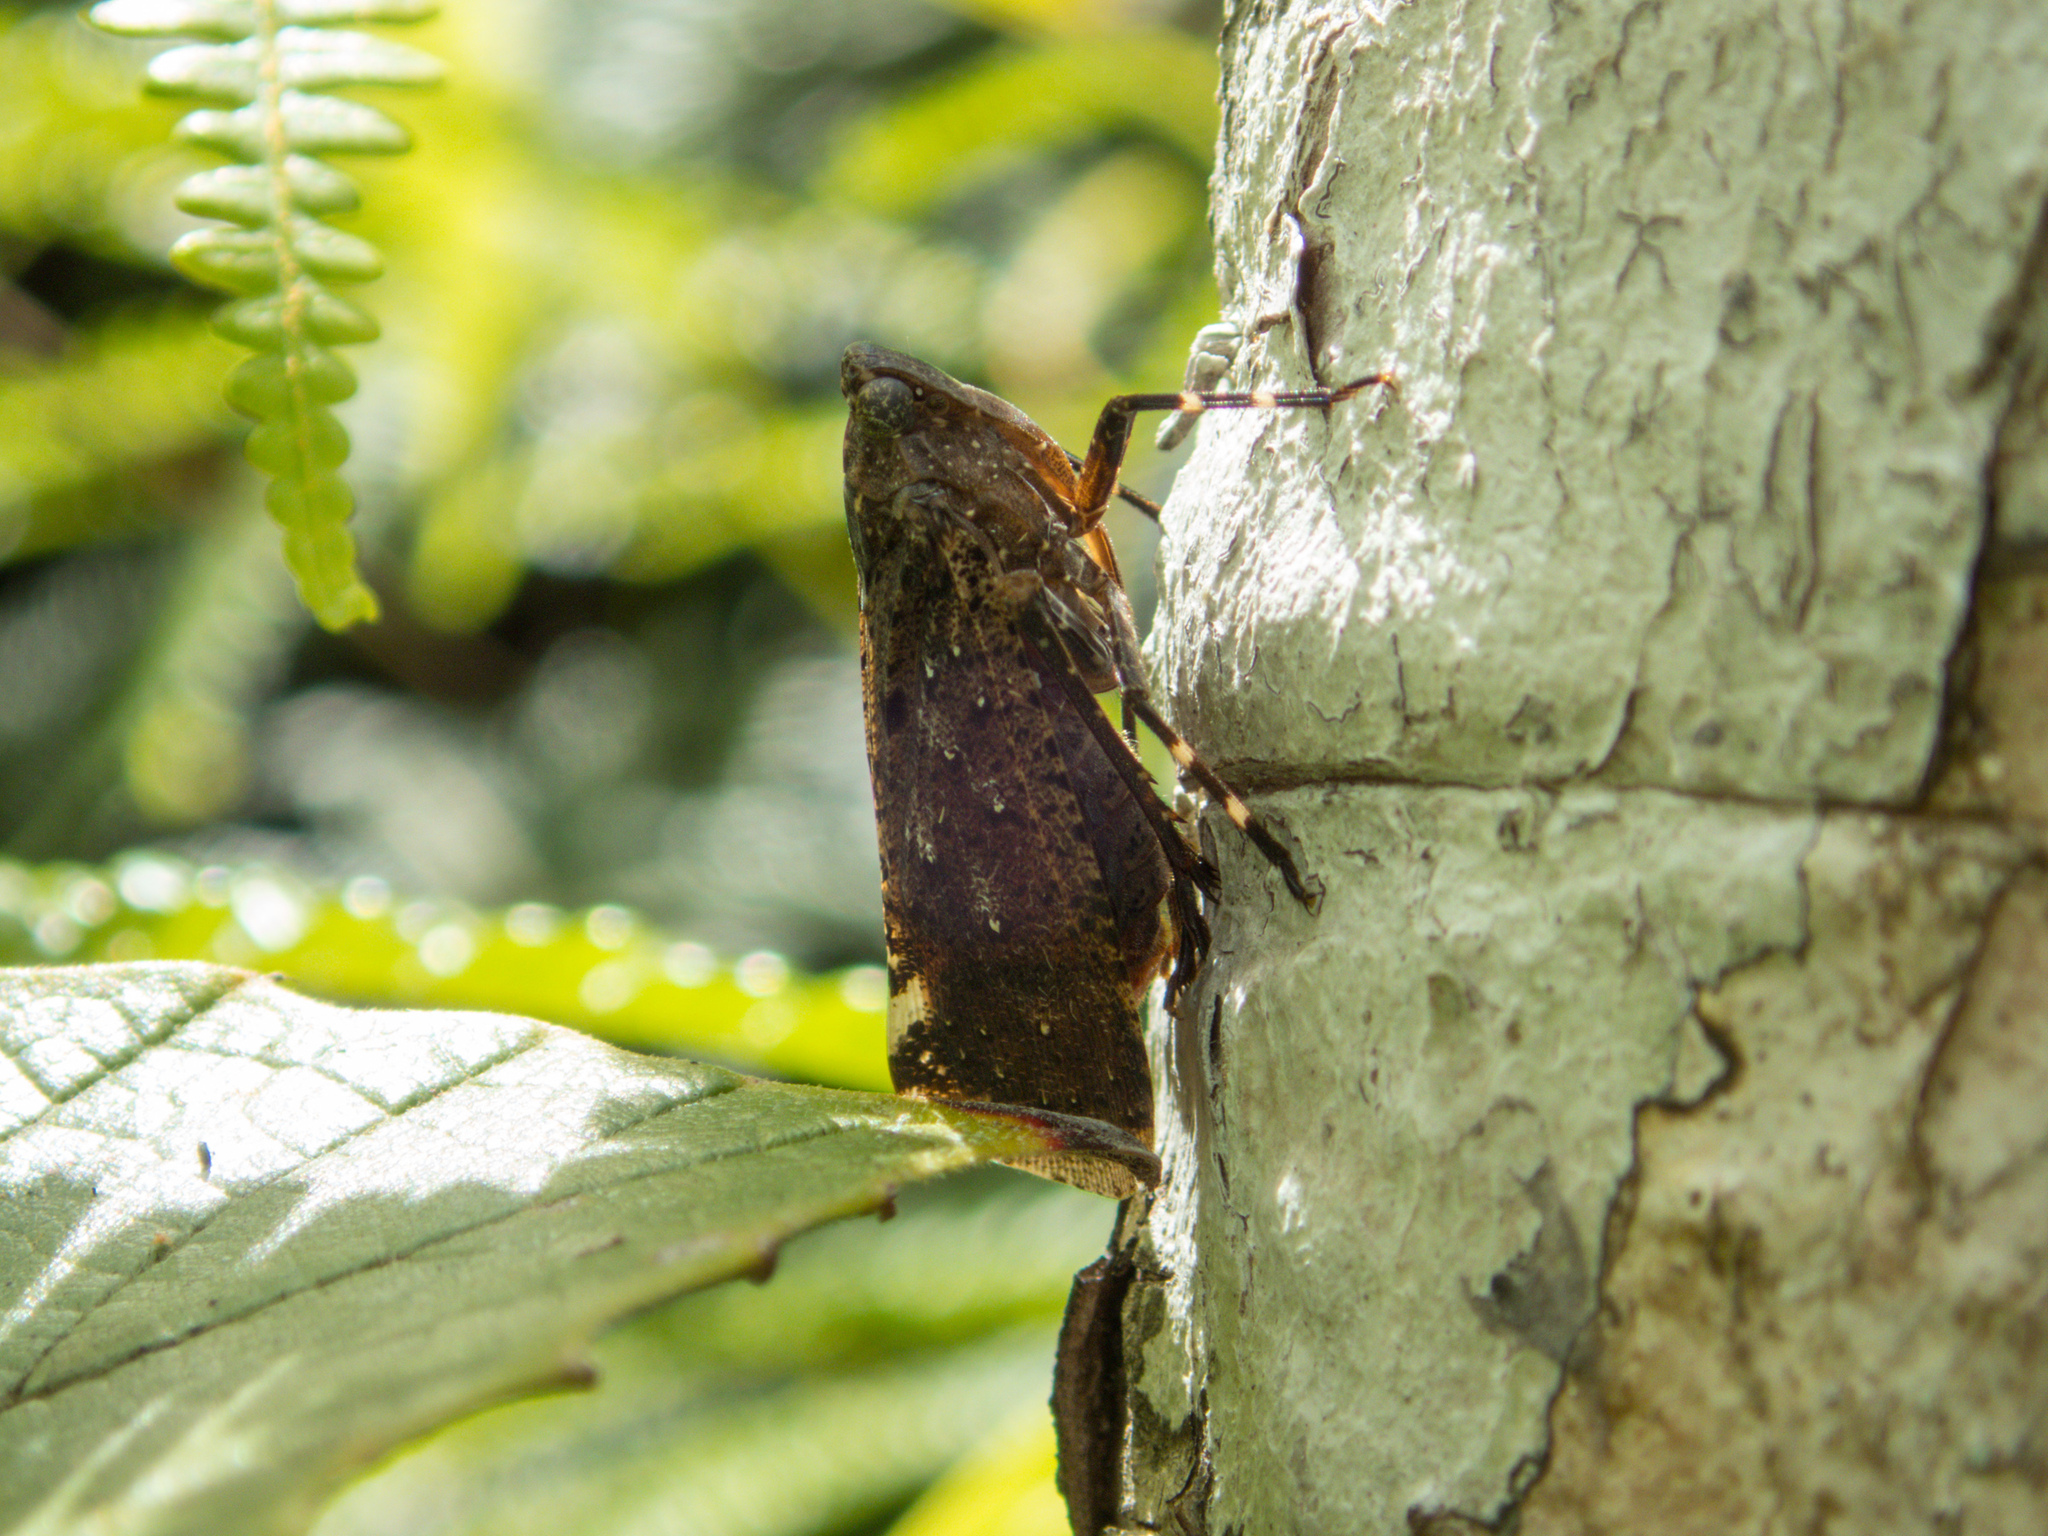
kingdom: Animalia
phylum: Arthropoda
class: Insecta
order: Hemiptera
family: Fulgoridae
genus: Penthicodes
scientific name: Penthicodes pulchella
